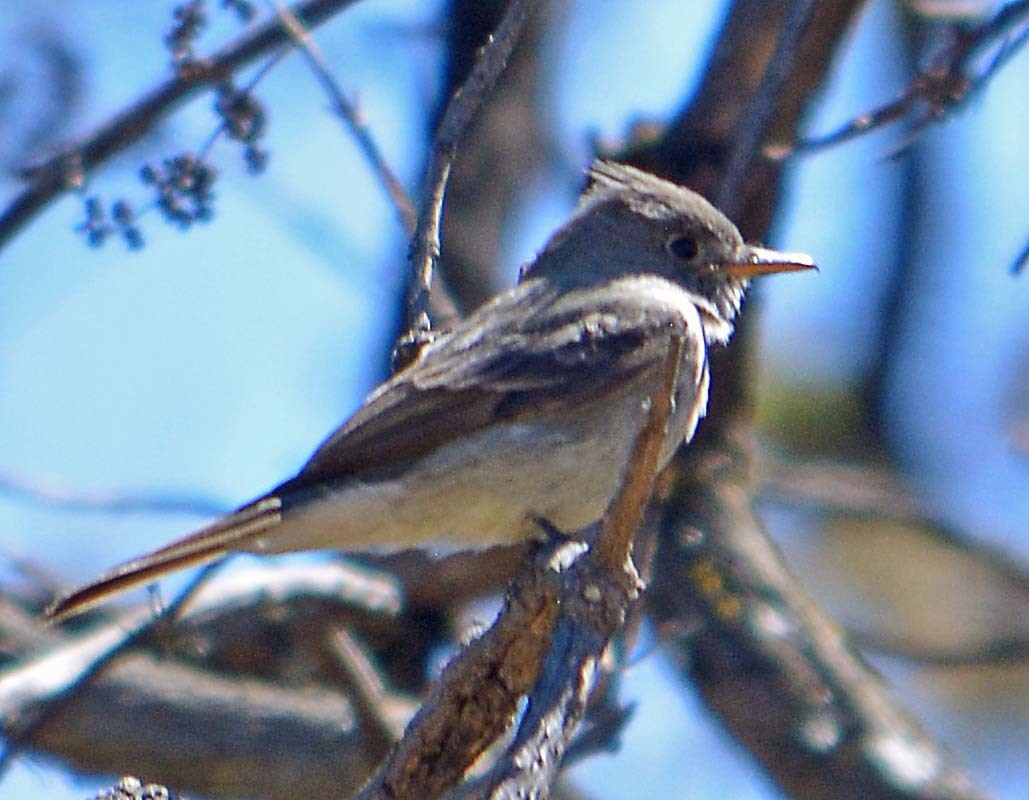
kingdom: Animalia
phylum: Chordata
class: Aves
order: Passeriformes
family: Tyrannidae
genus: Contopus
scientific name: Contopus pertinax
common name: Greater pewee
